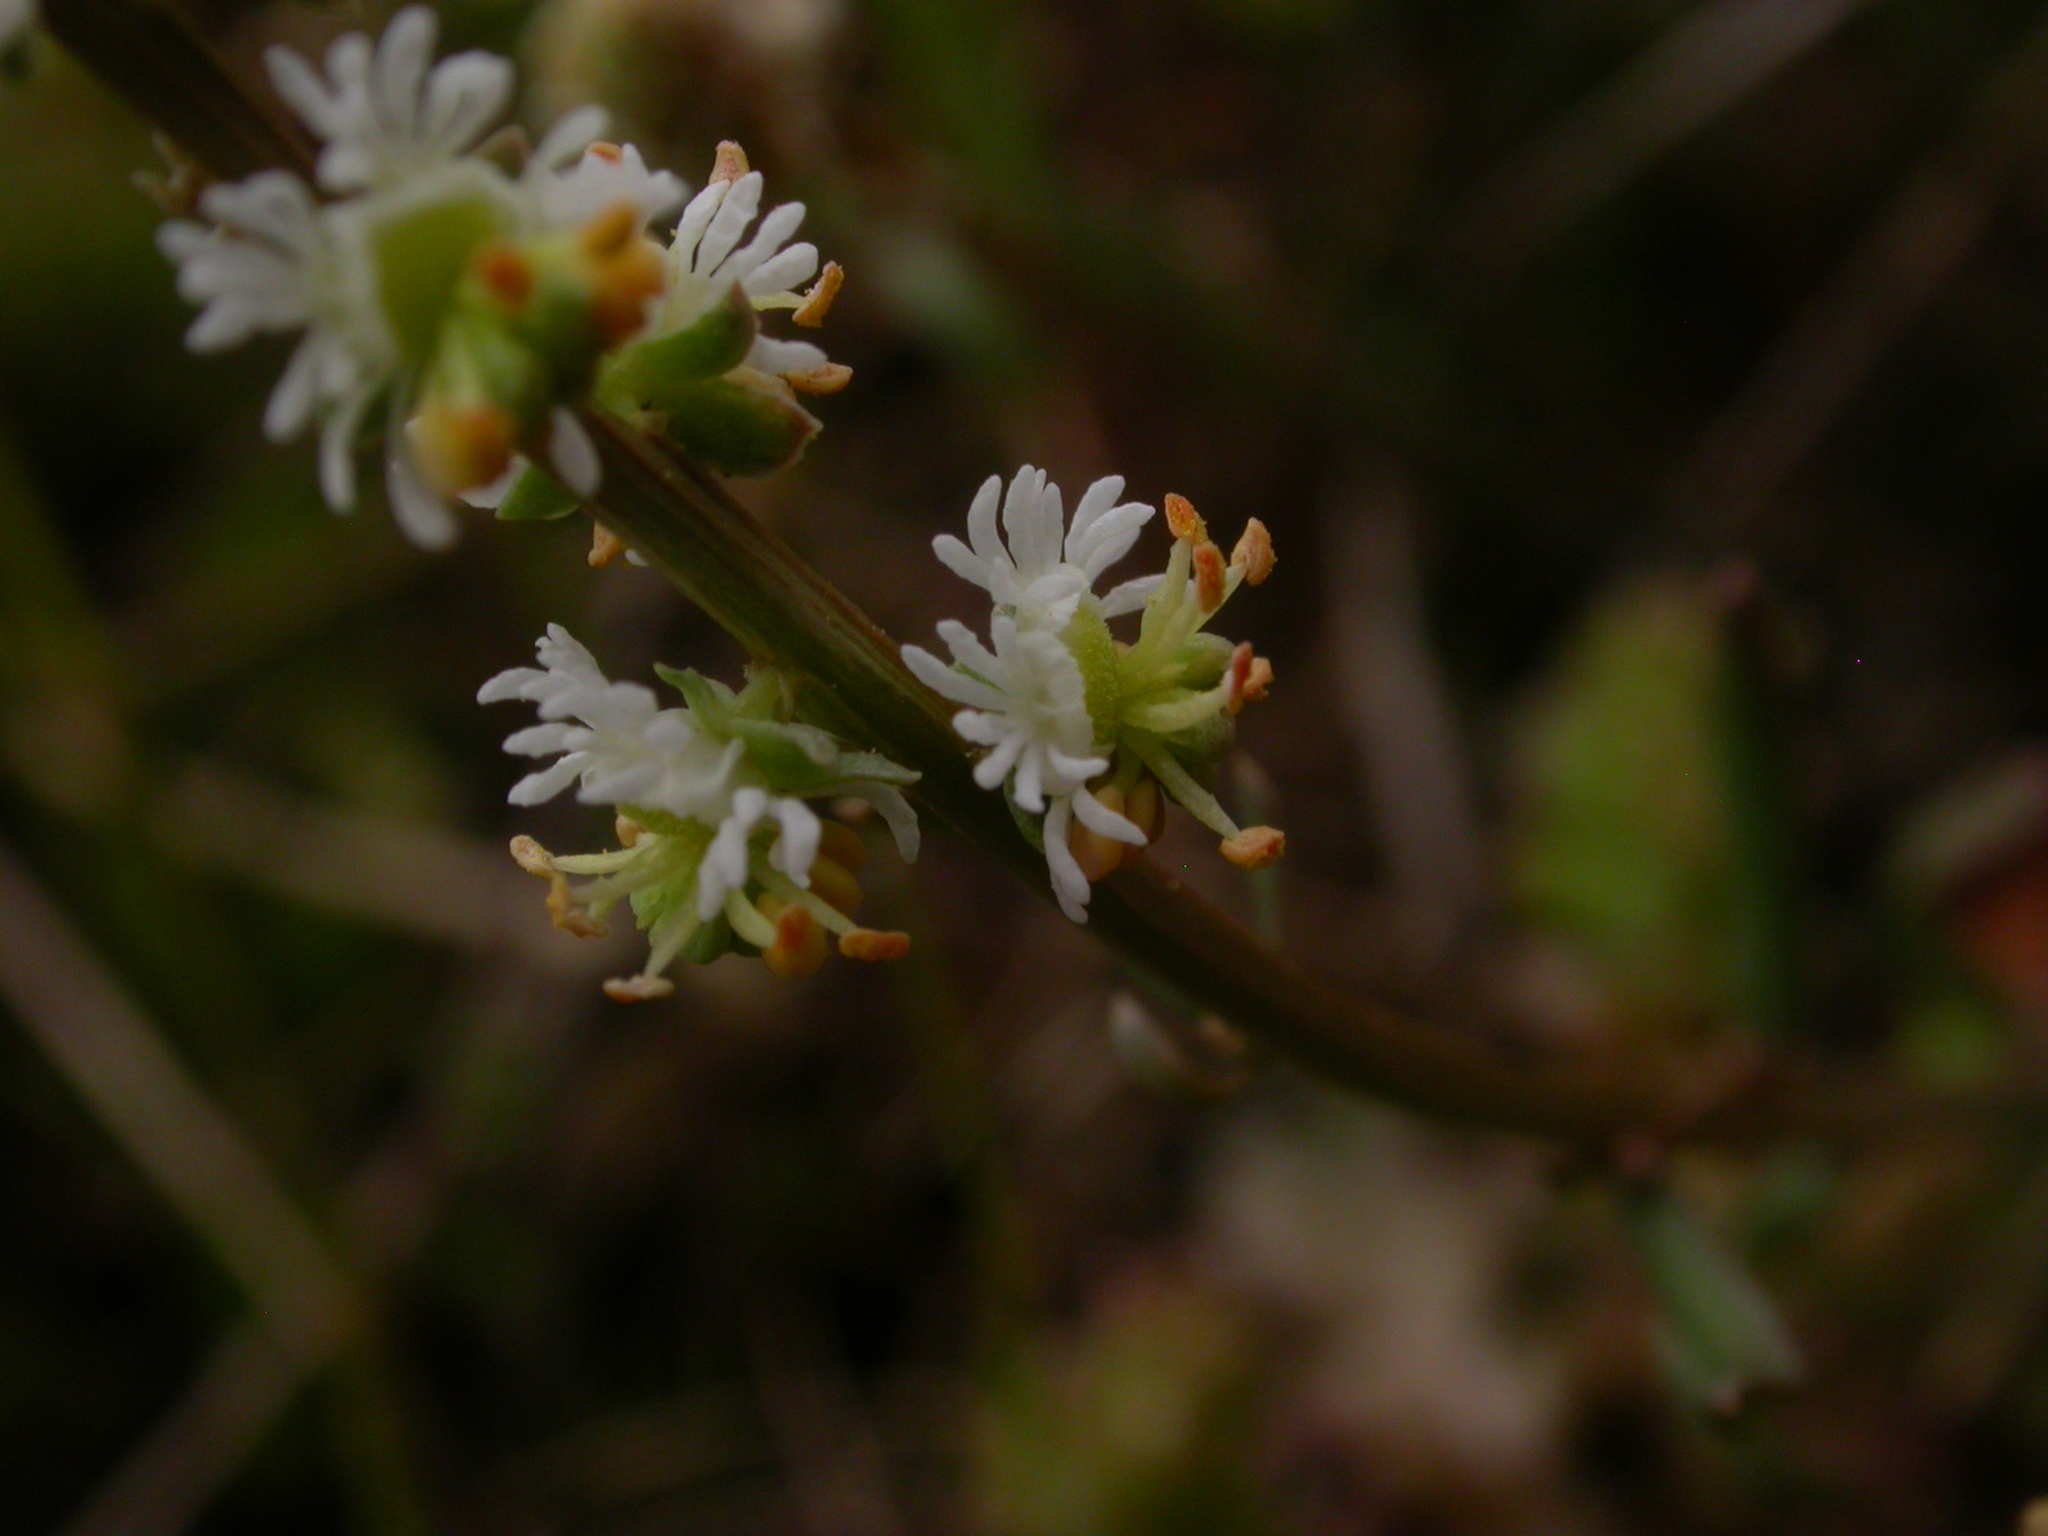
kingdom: Plantae
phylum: Tracheophyta
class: Magnoliopsida
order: Brassicales
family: Resedaceae
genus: Sesamoides
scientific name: Sesamoides purpurascens
